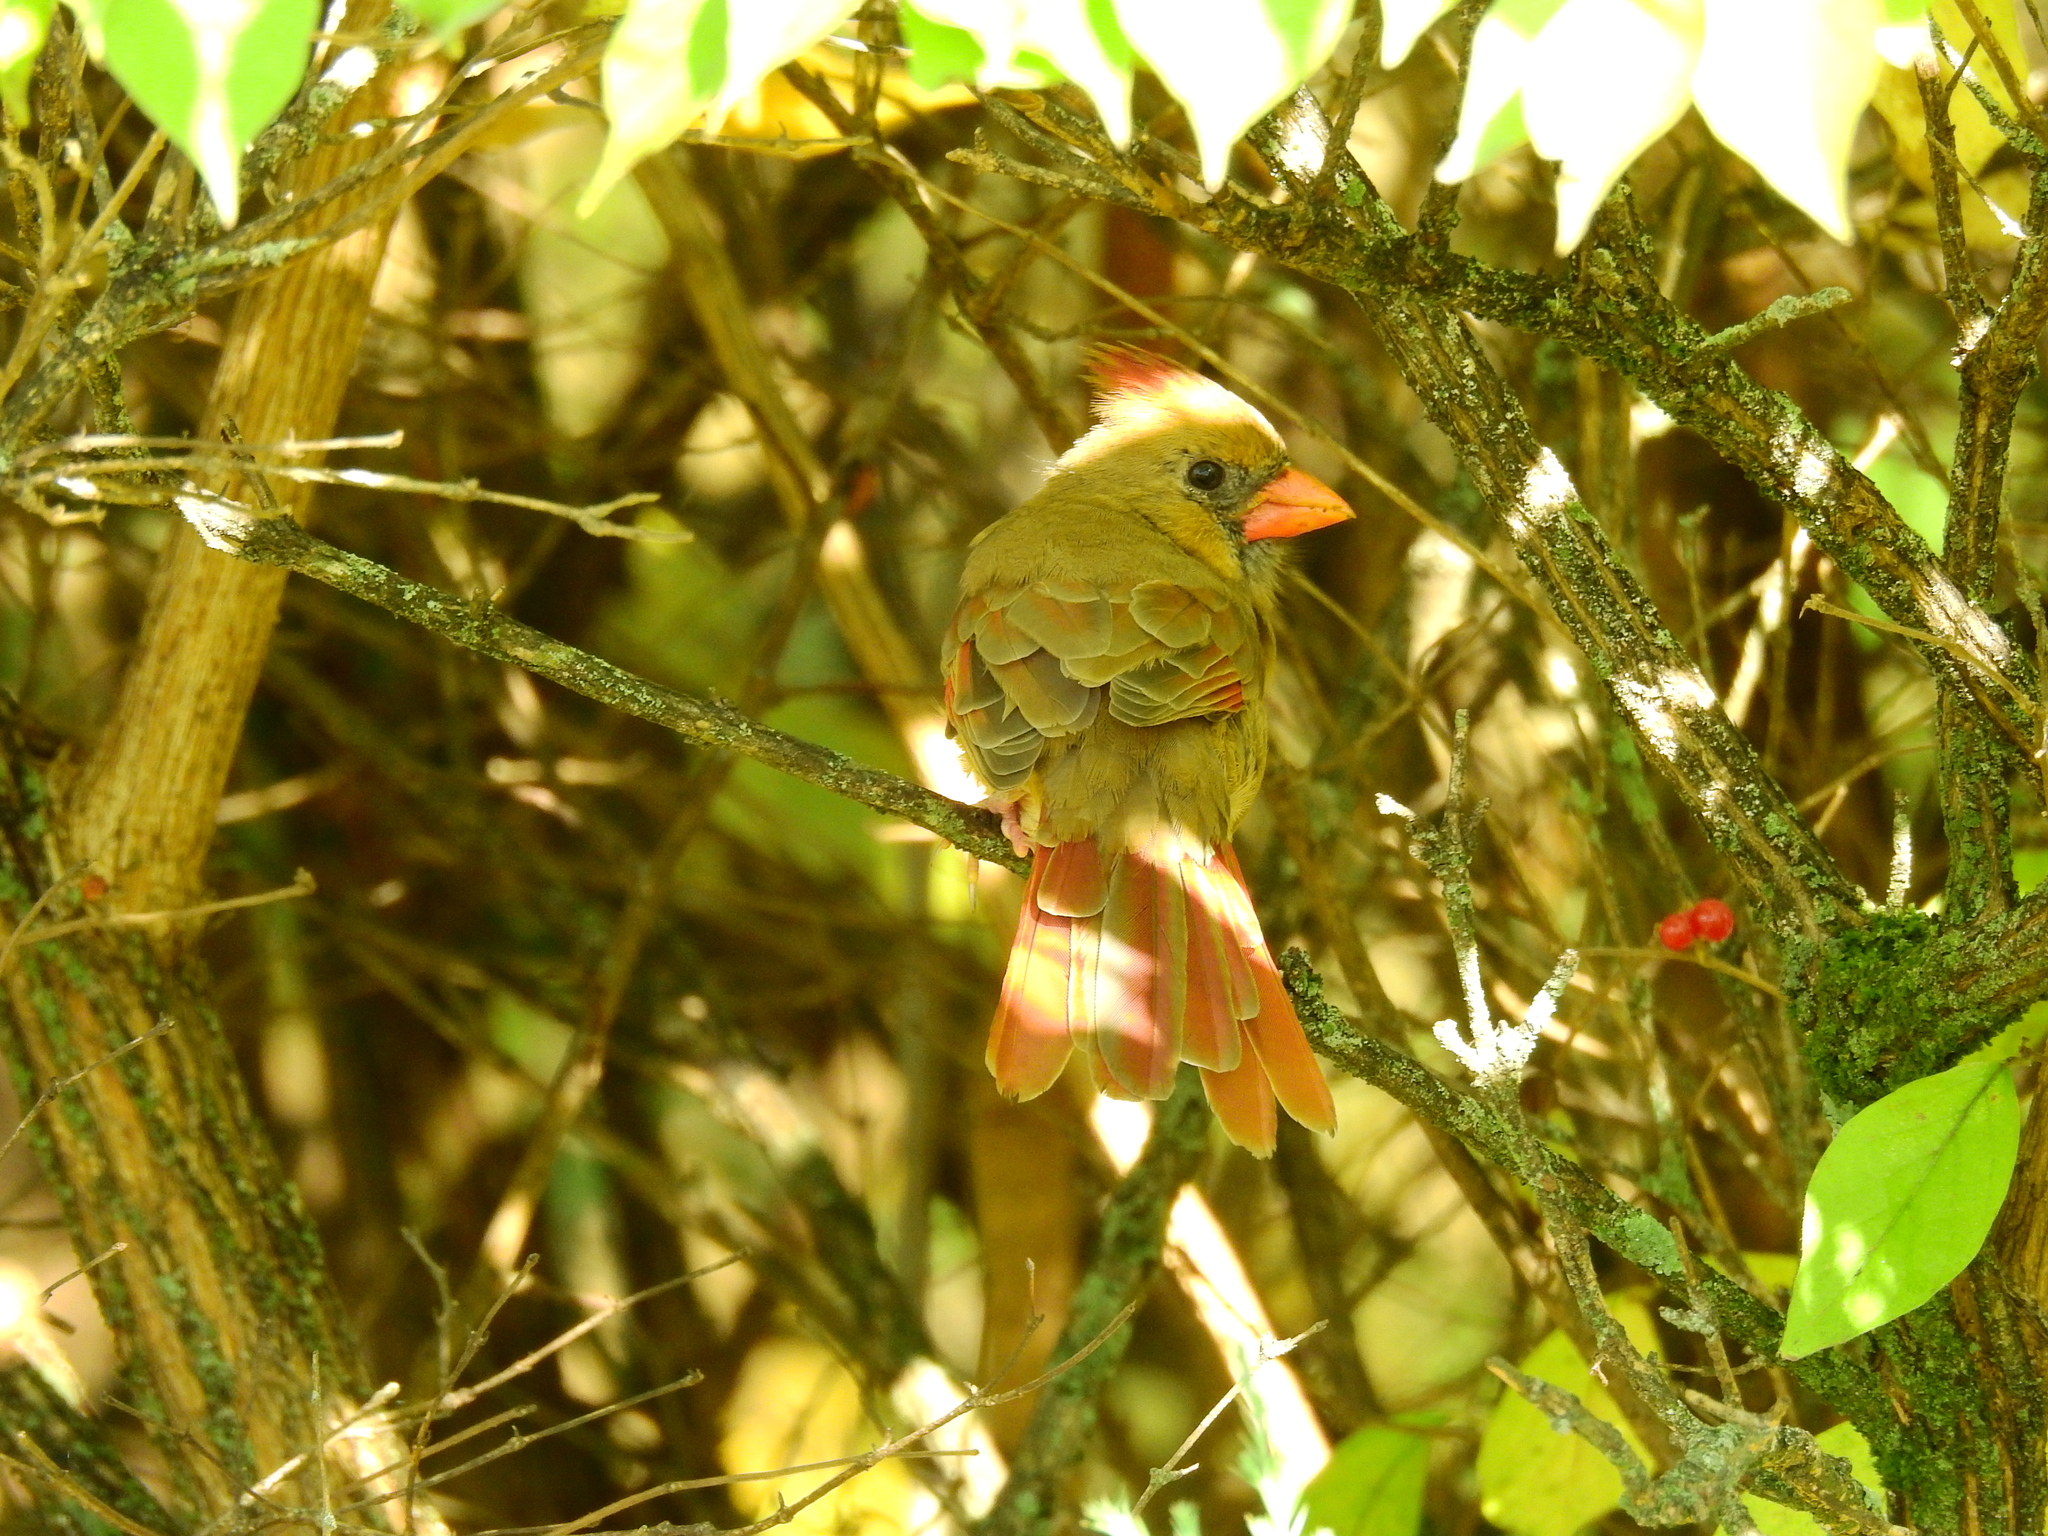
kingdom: Animalia
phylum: Chordata
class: Aves
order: Passeriformes
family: Cardinalidae
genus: Cardinalis
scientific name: Cardinalis cardinalis
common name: Northern cardinal
